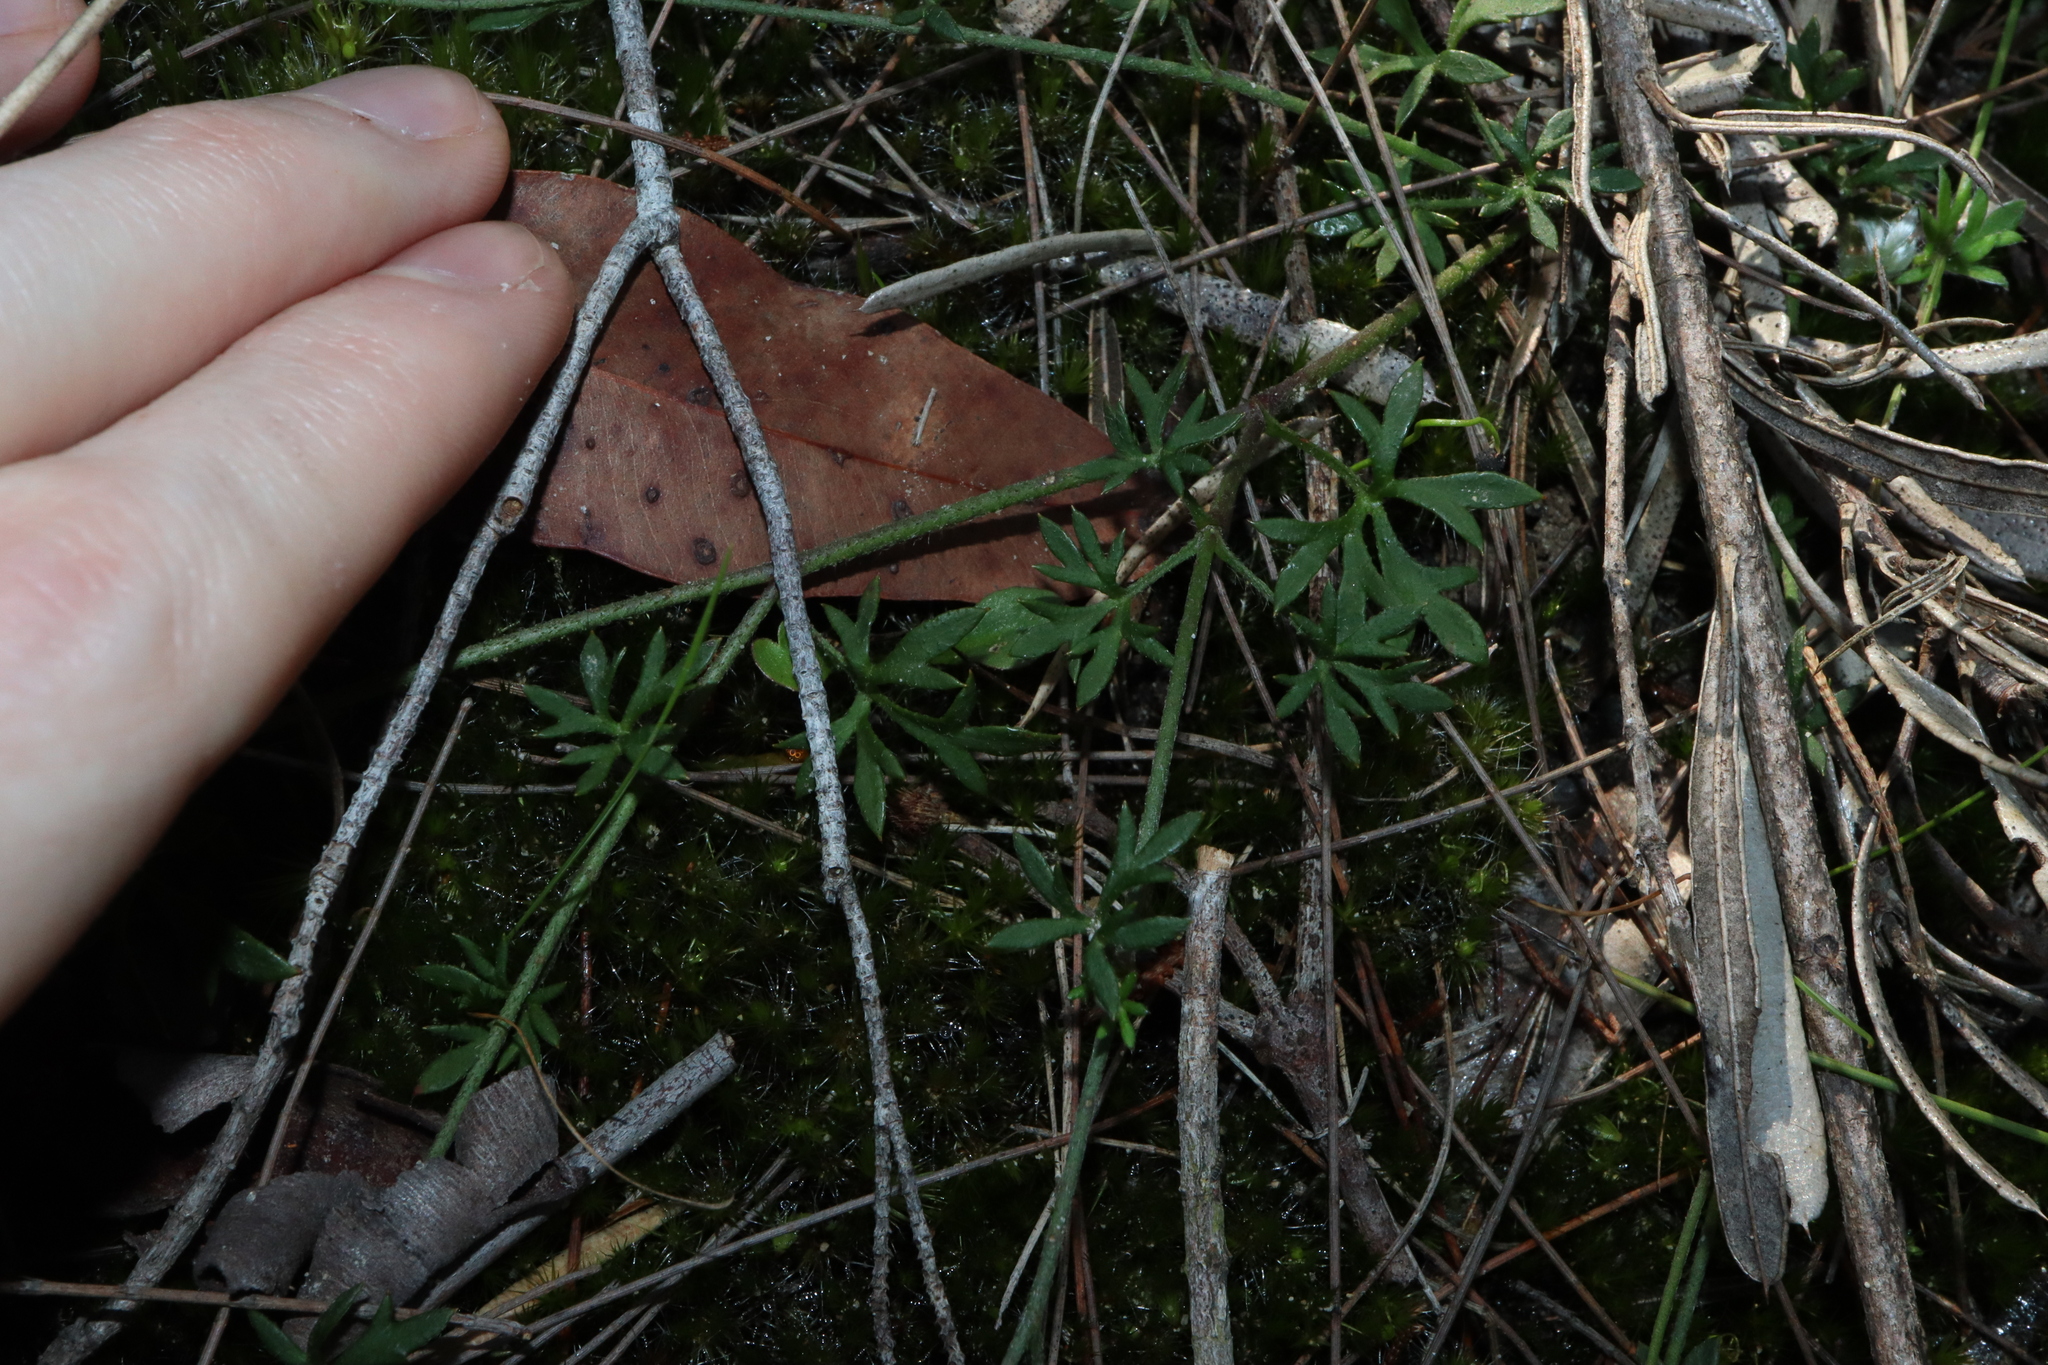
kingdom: Plantae
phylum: Tracheophyta
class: Magnoliopsida
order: Apiales
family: Apiaceae
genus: Actinotus
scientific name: Actinotus minor
